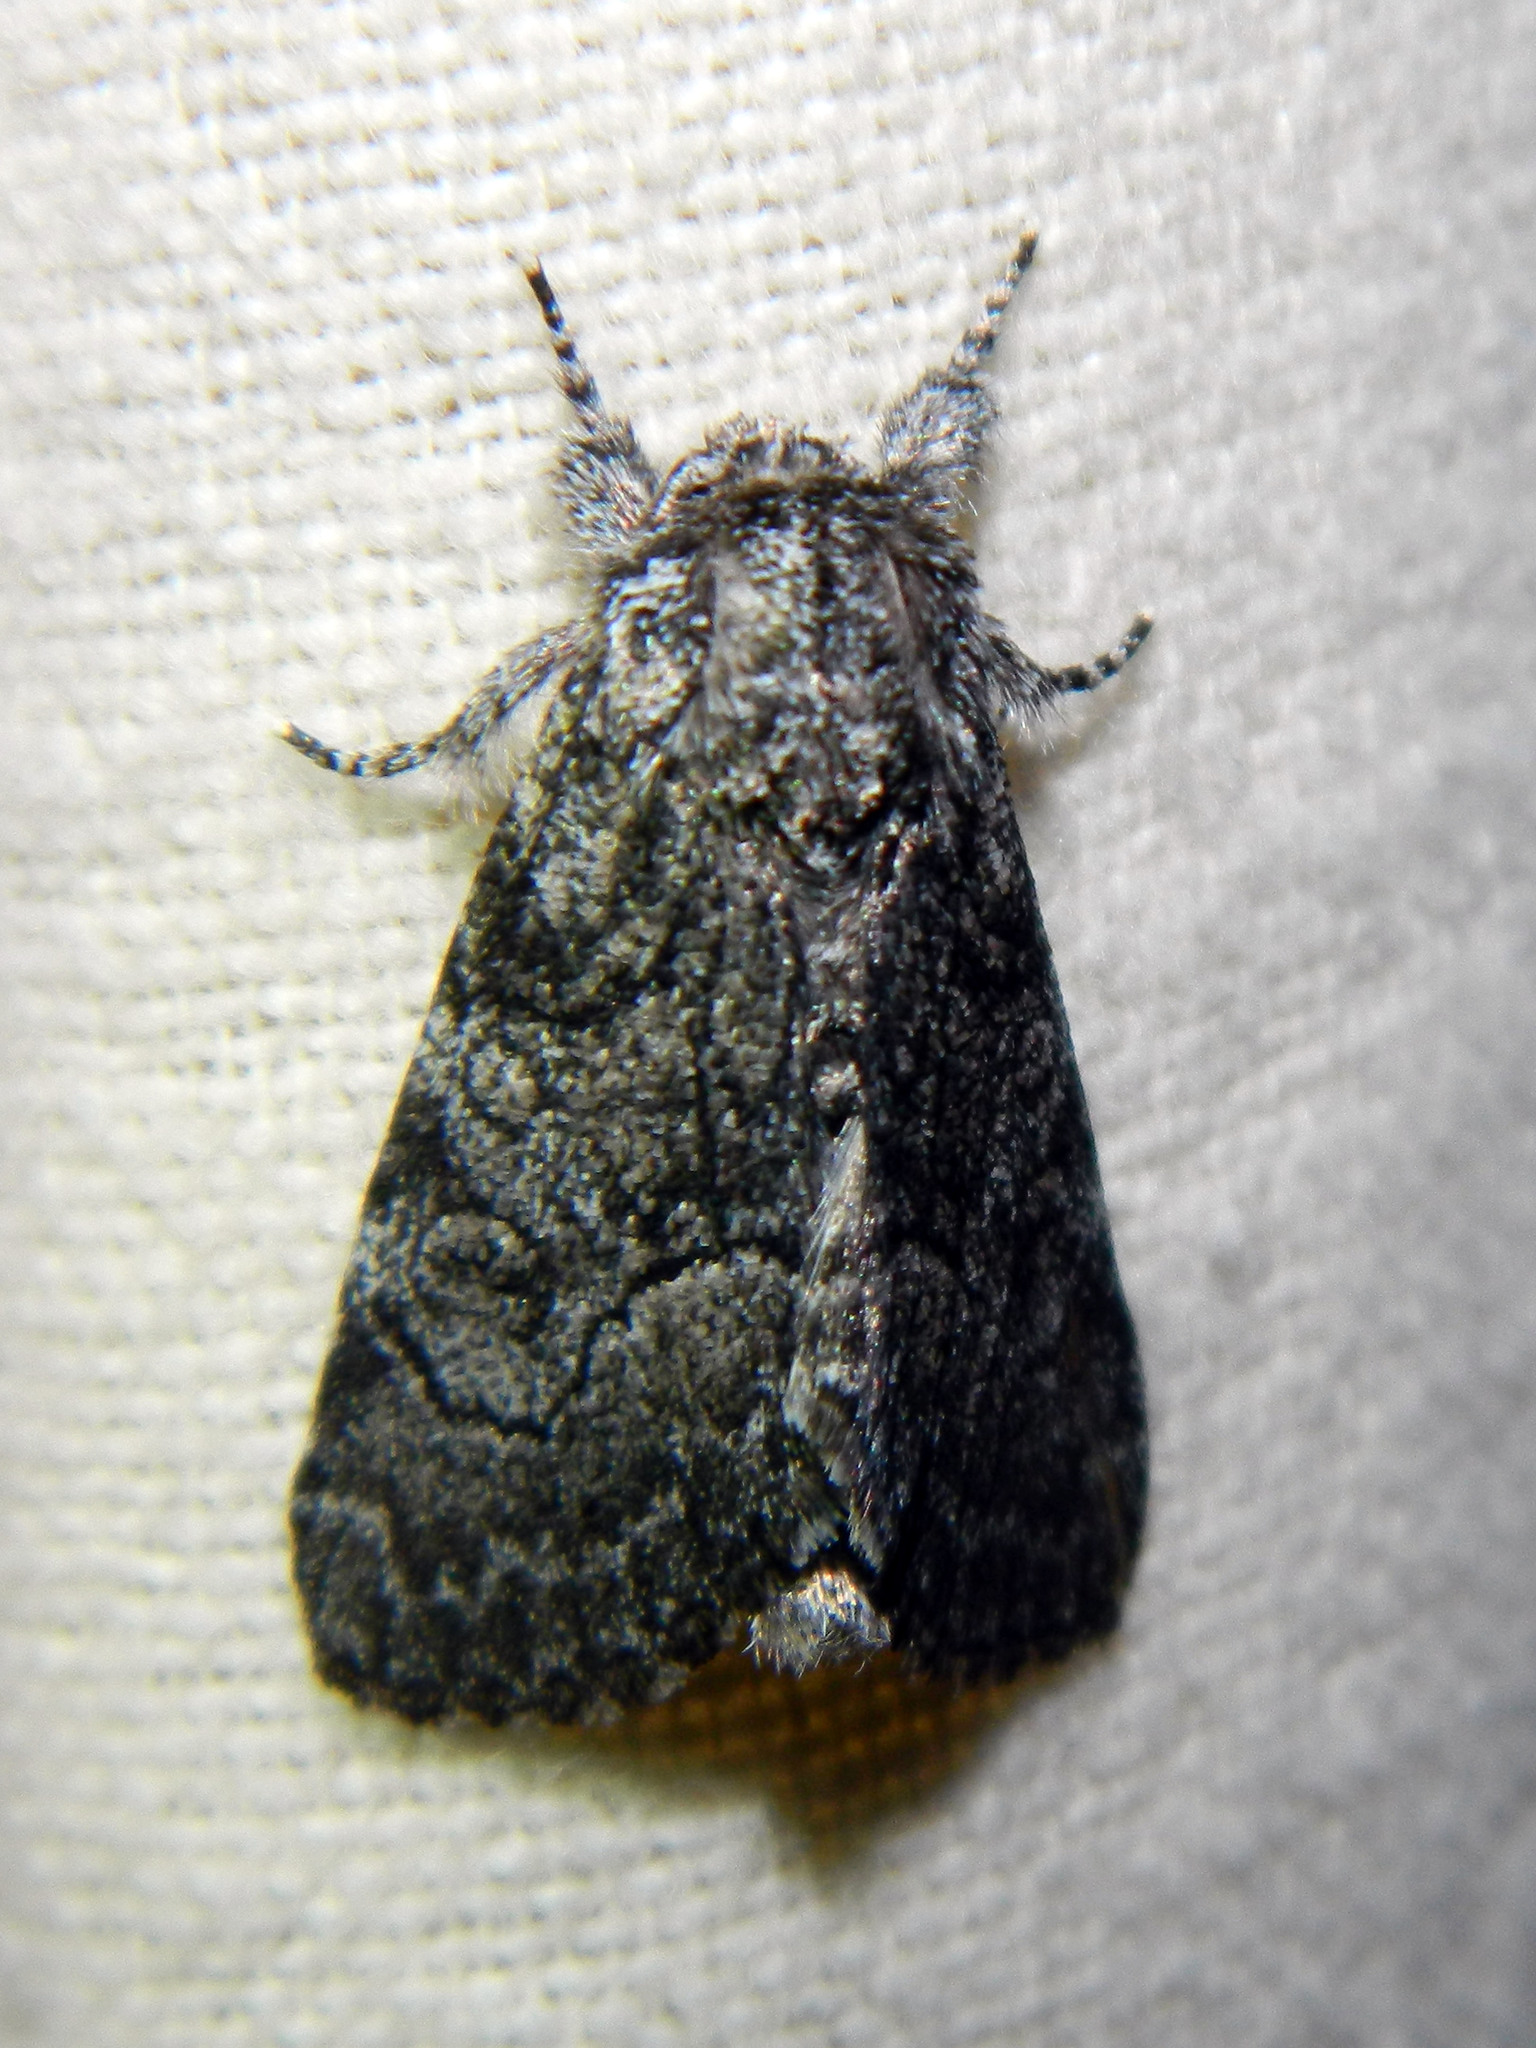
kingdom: Animalia
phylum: Arthropoda
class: Insecta
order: Lepidoptera
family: Noctuidae
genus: Raphia
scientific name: Raphia frater
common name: Brother
